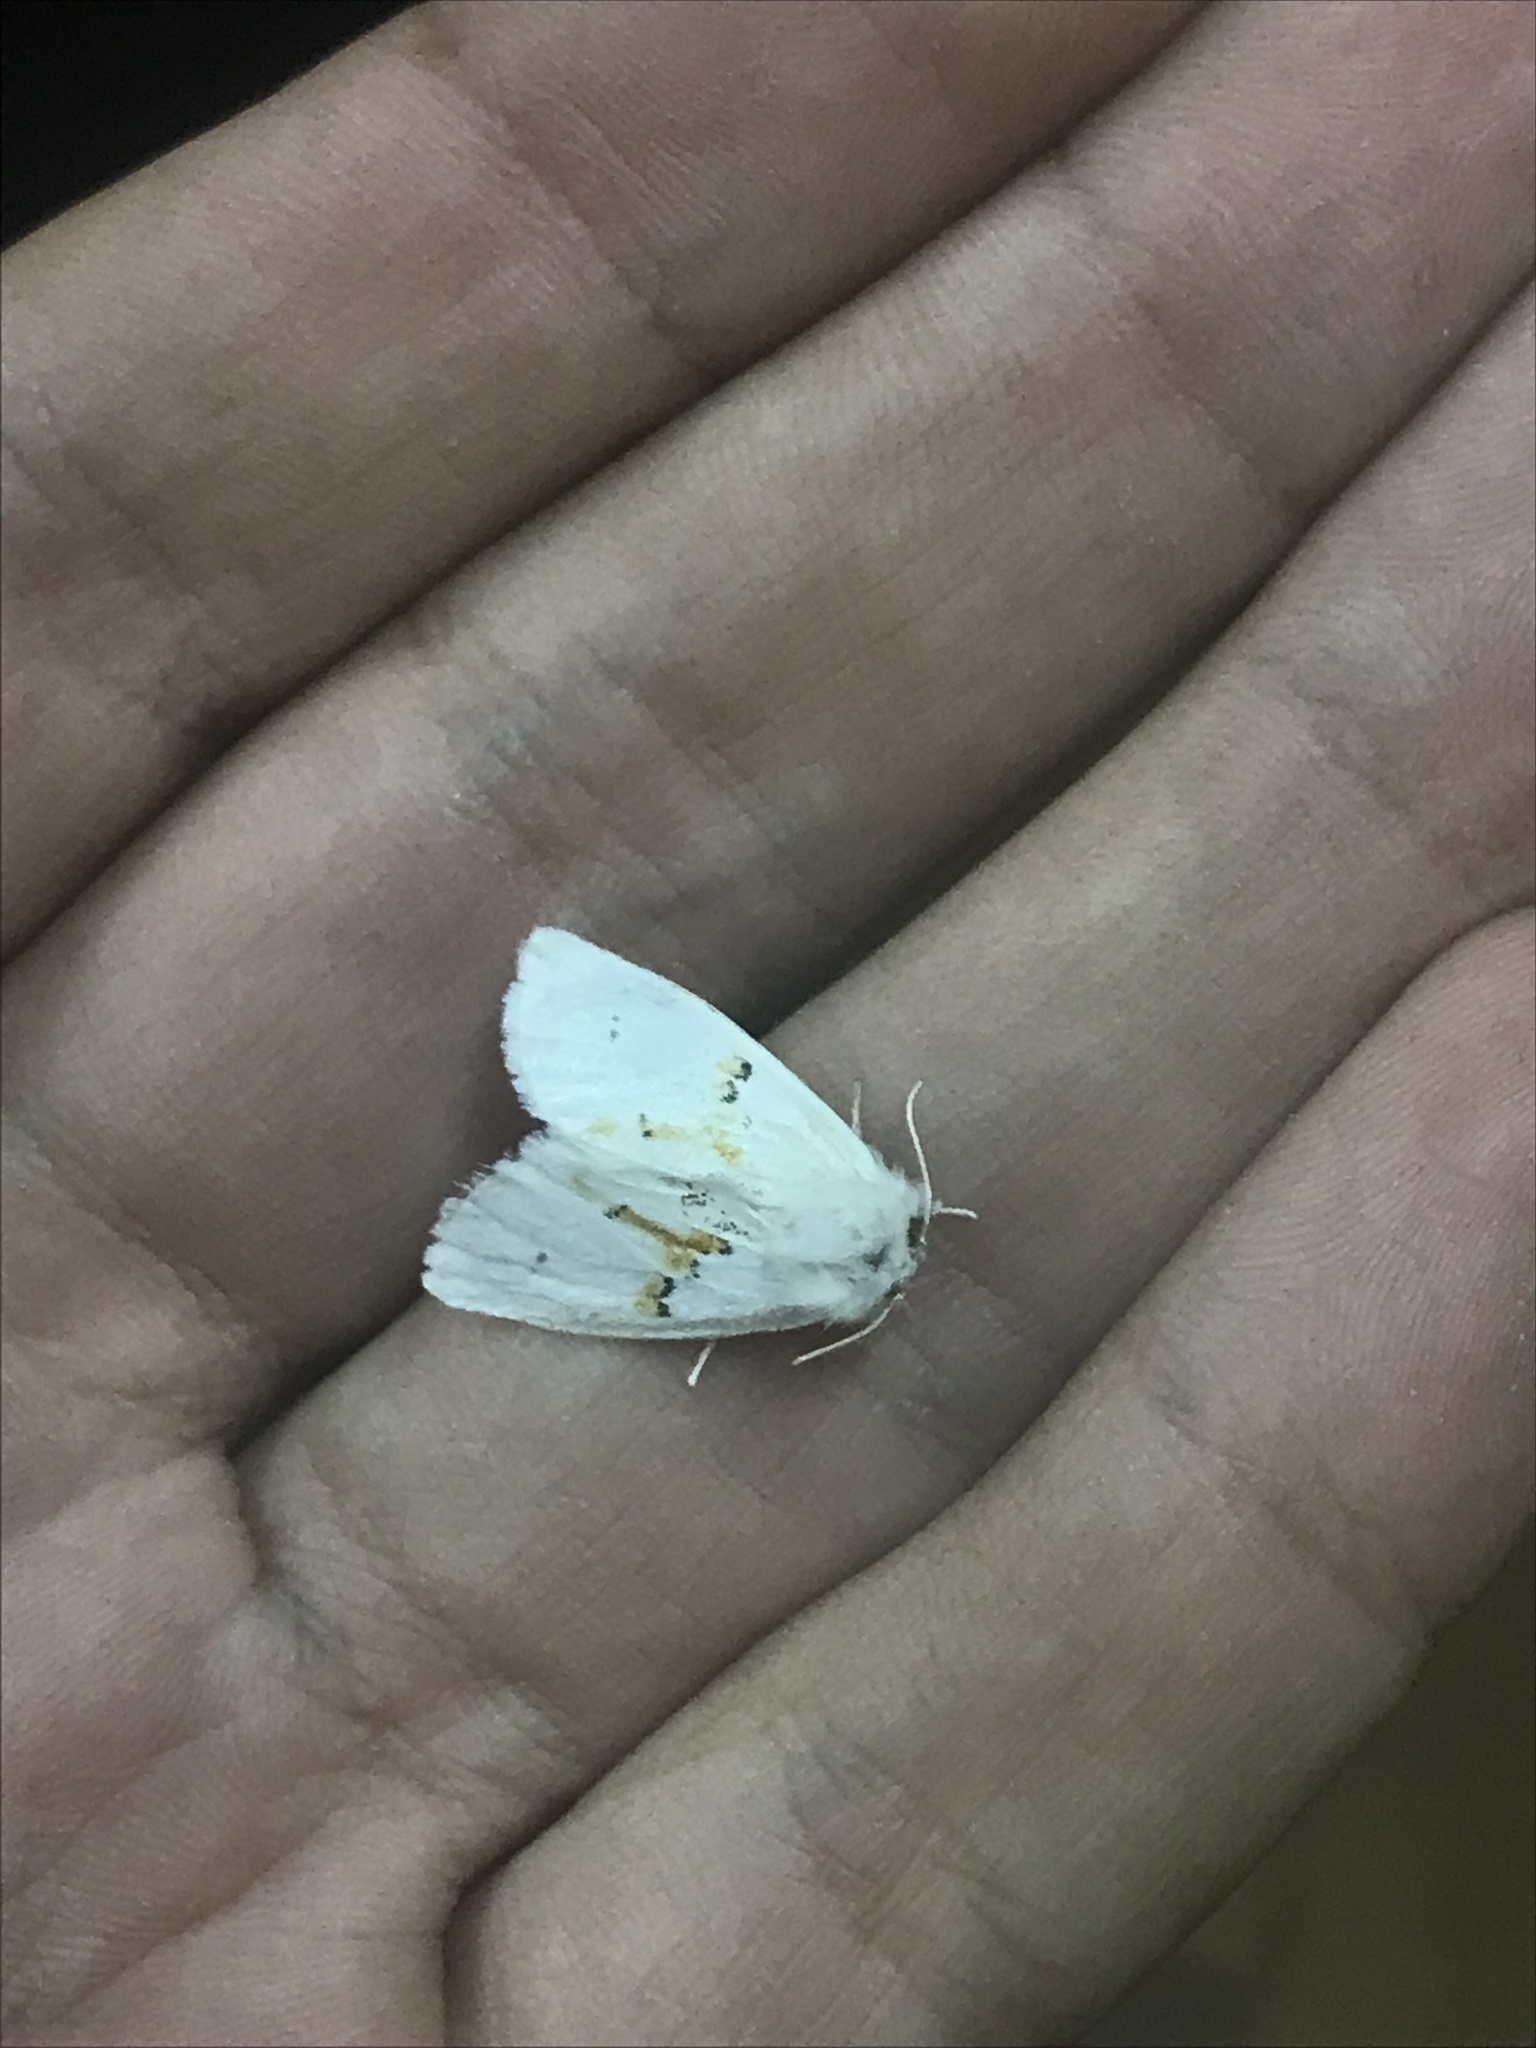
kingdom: Animalia
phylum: Arthropoda
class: Insecta
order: Lepidoptera
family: Notodontidae
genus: Leucodonta
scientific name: Leucodonta bicoloria
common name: White prominent
